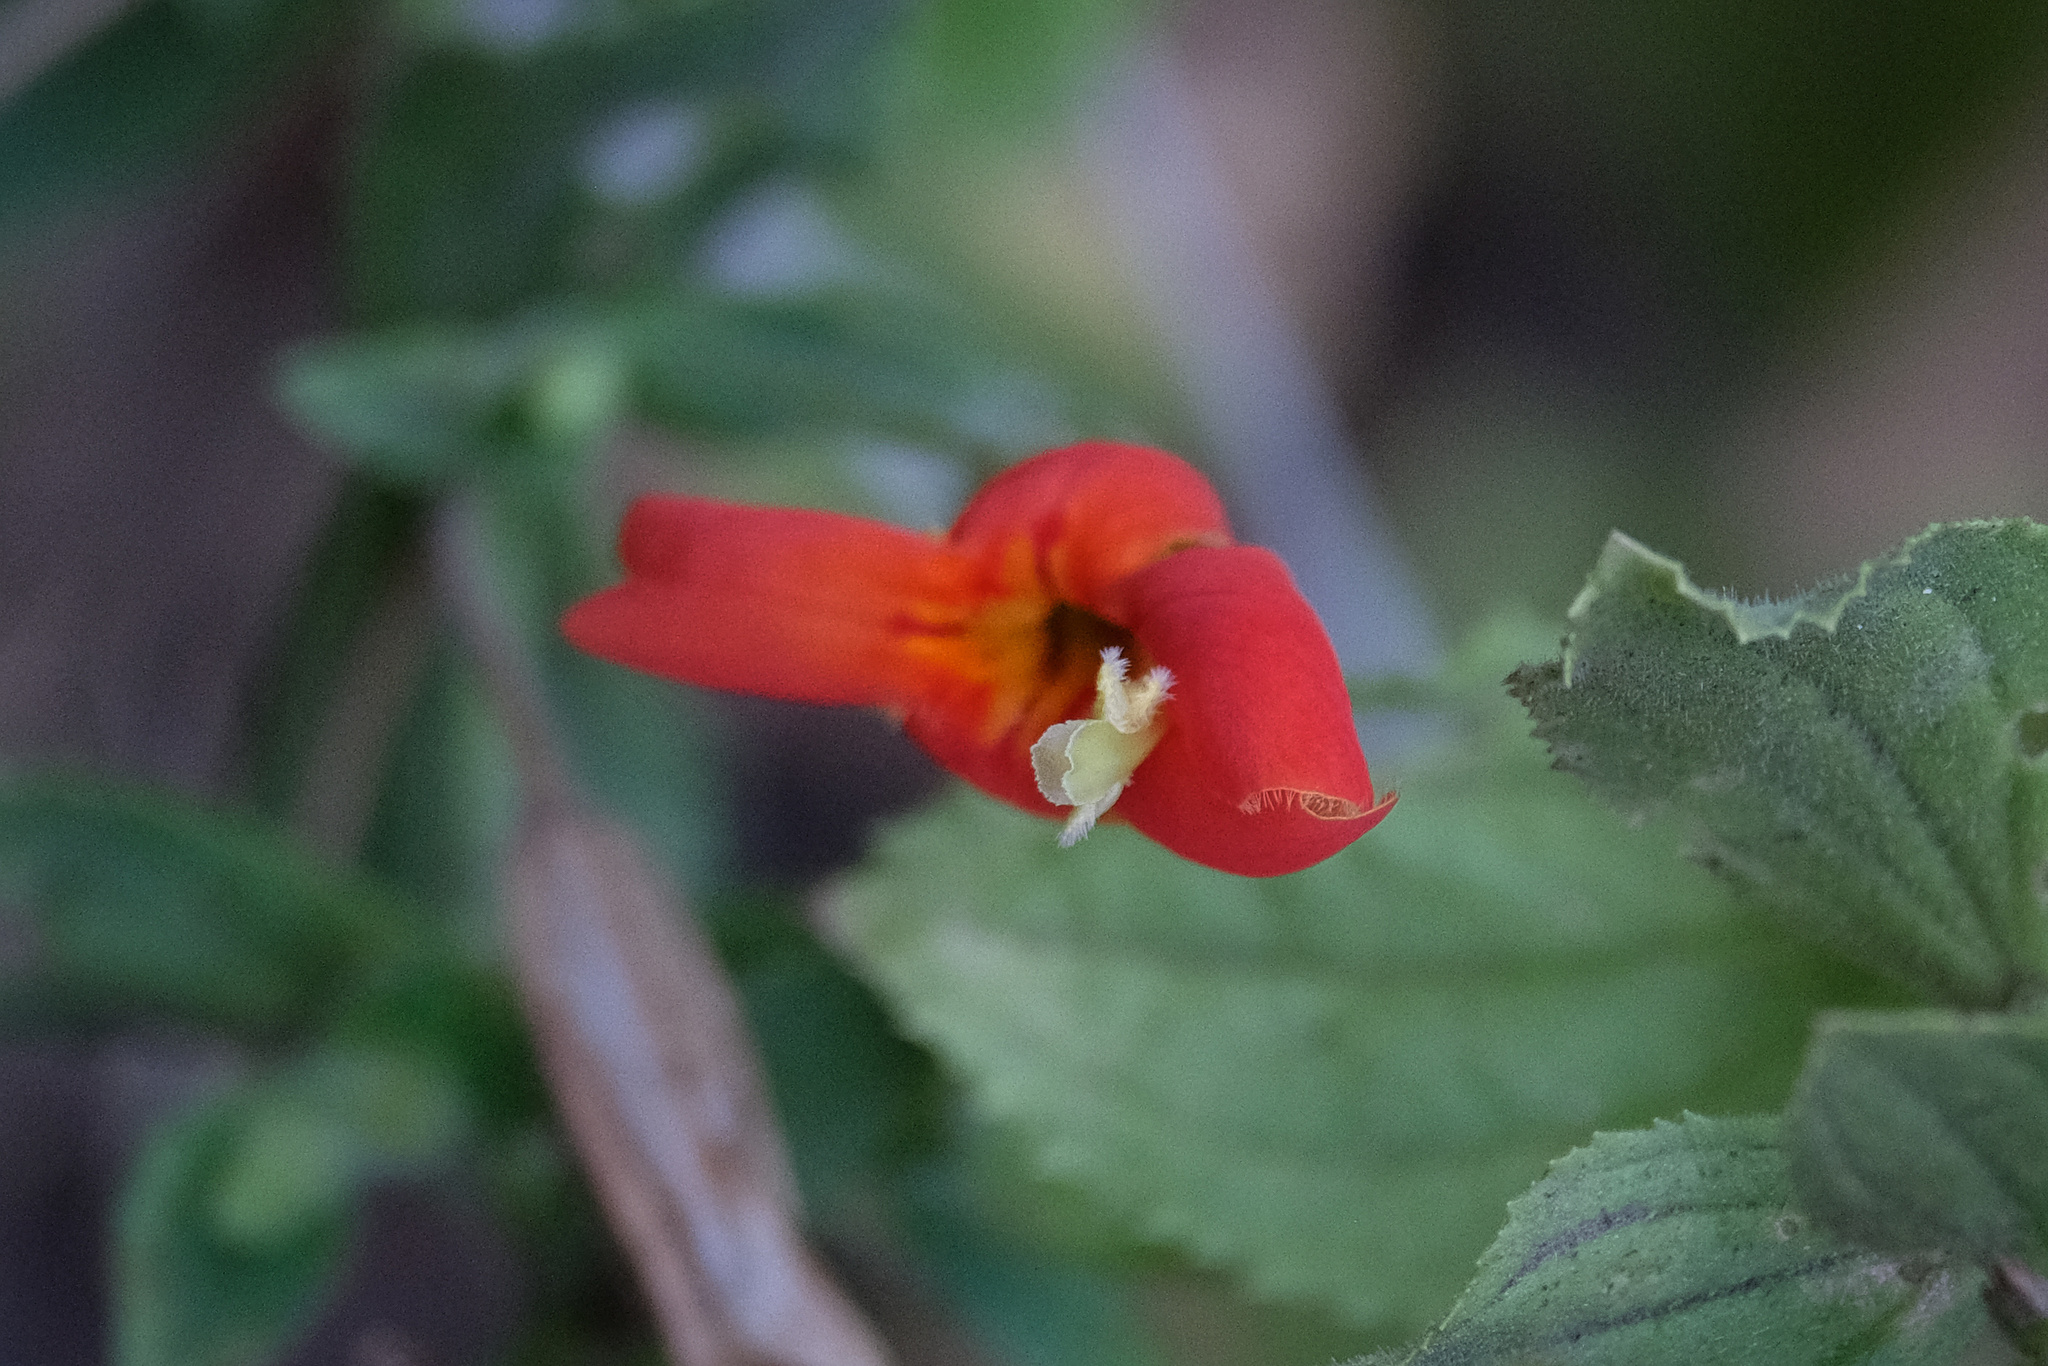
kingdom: Plantae
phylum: Tracheophyta
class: Magnoliopsida
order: Lamiales
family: Phrymaceae
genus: Erythranthe
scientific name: Erythranthe cardinalis
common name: Scarlet monkey-flower
